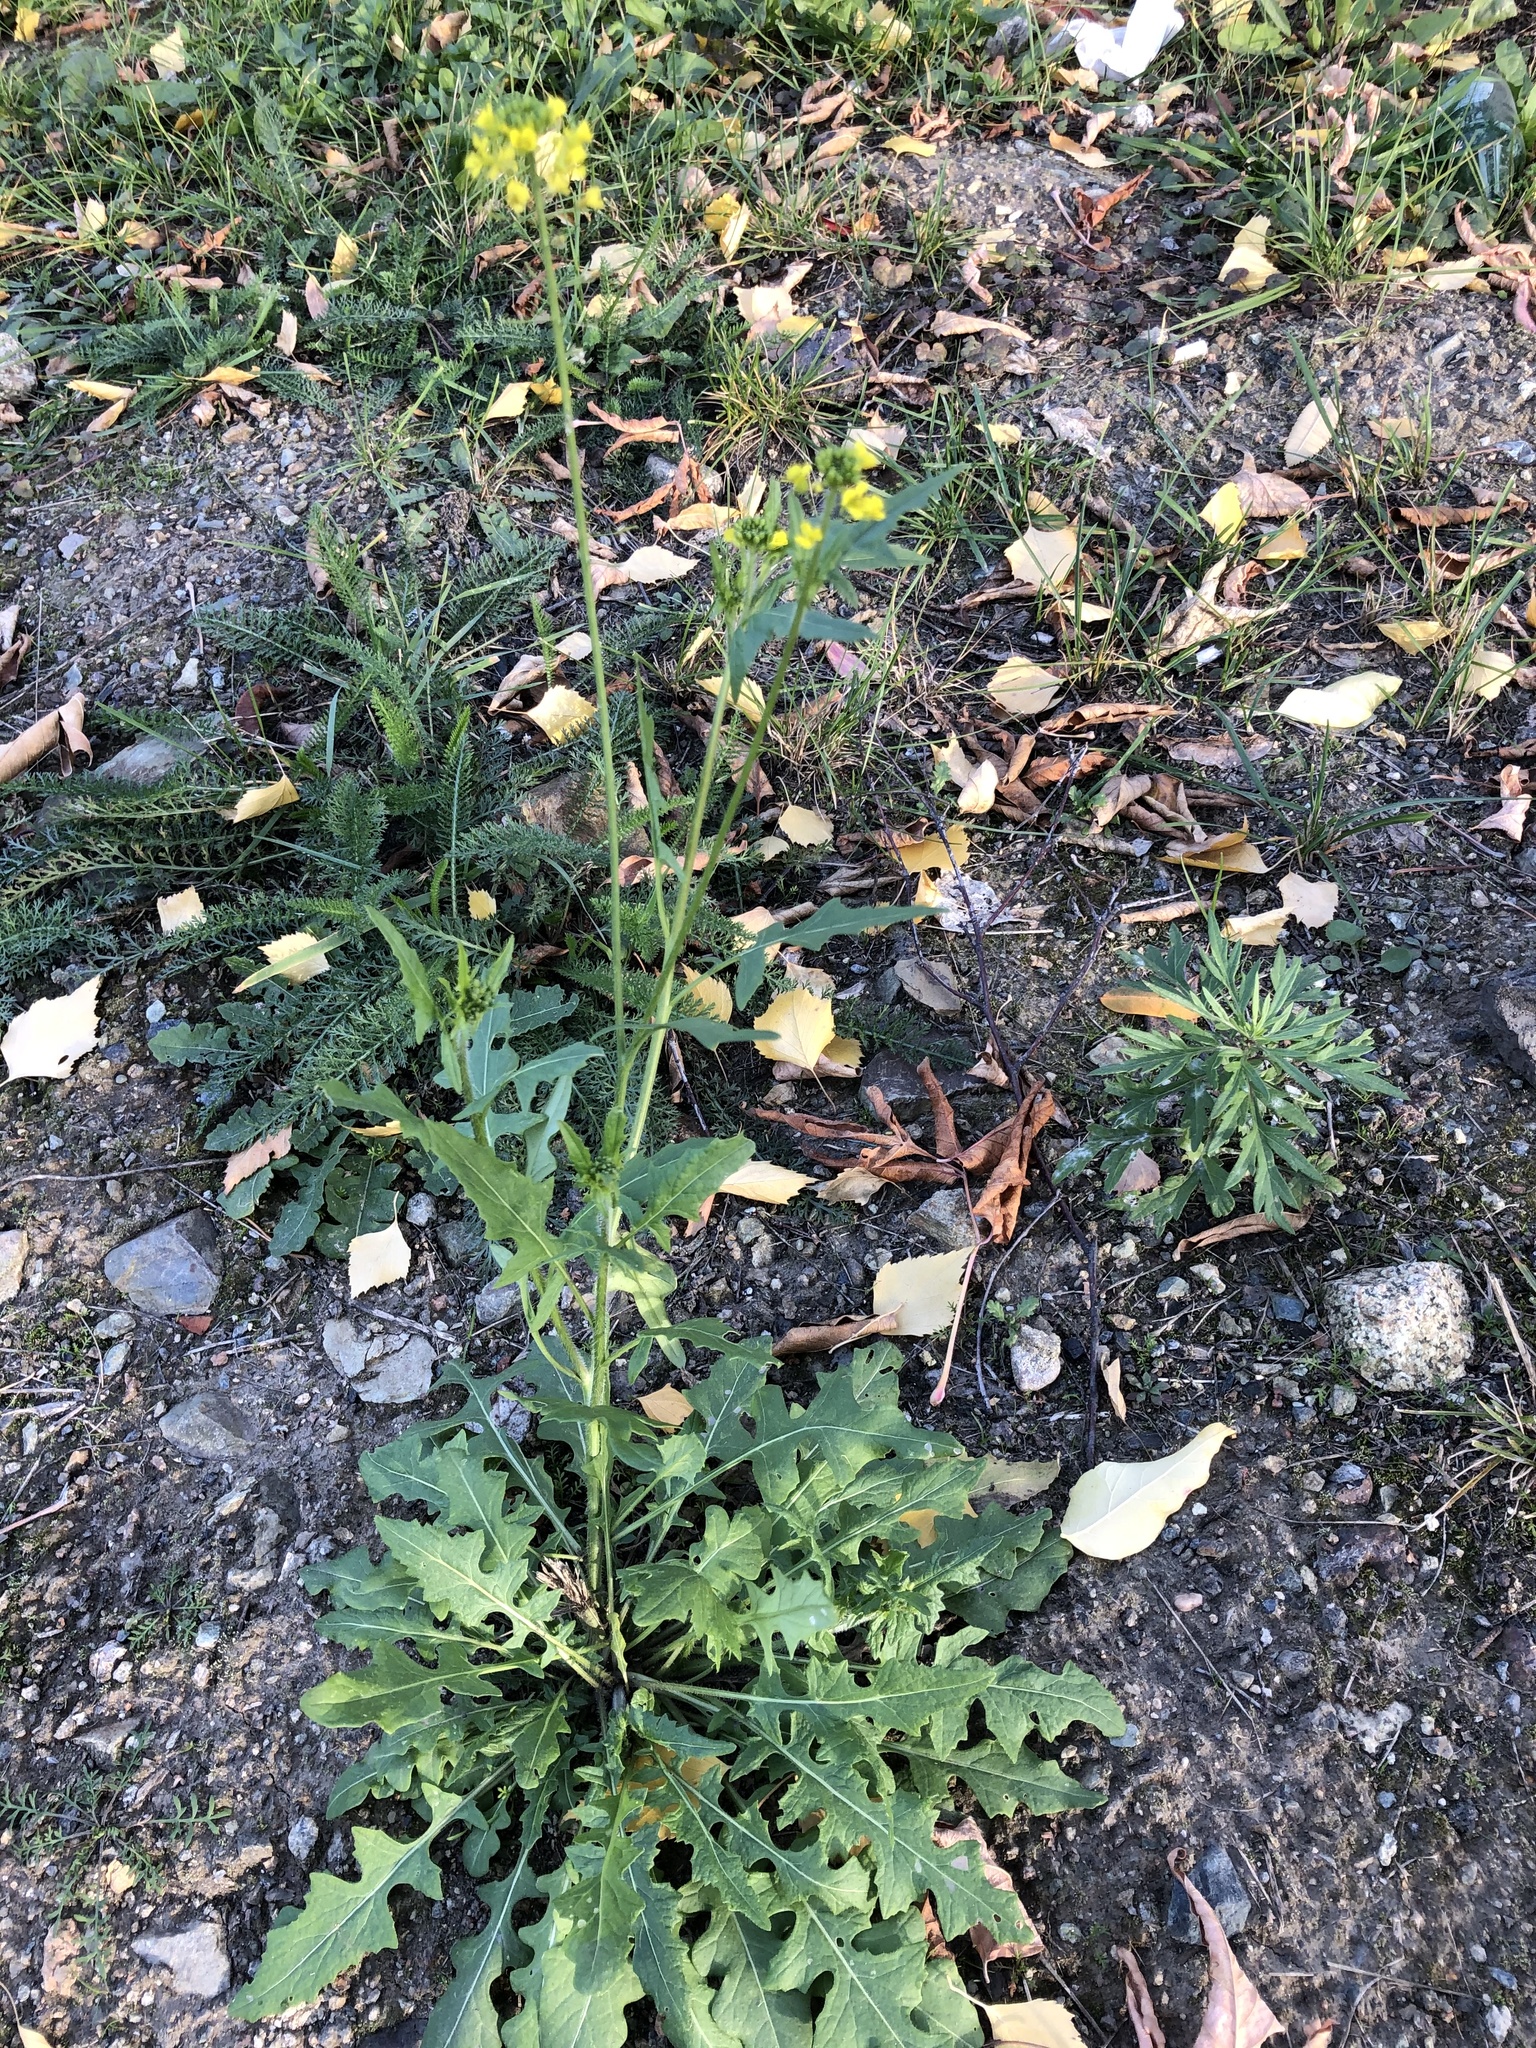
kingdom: Plantae
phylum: Tracheophyta
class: Magnoliopsida
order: Brassicales
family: Brassicaceae
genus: Sisymbrium
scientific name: Sisymbrium loeselii
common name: False london-rocket
